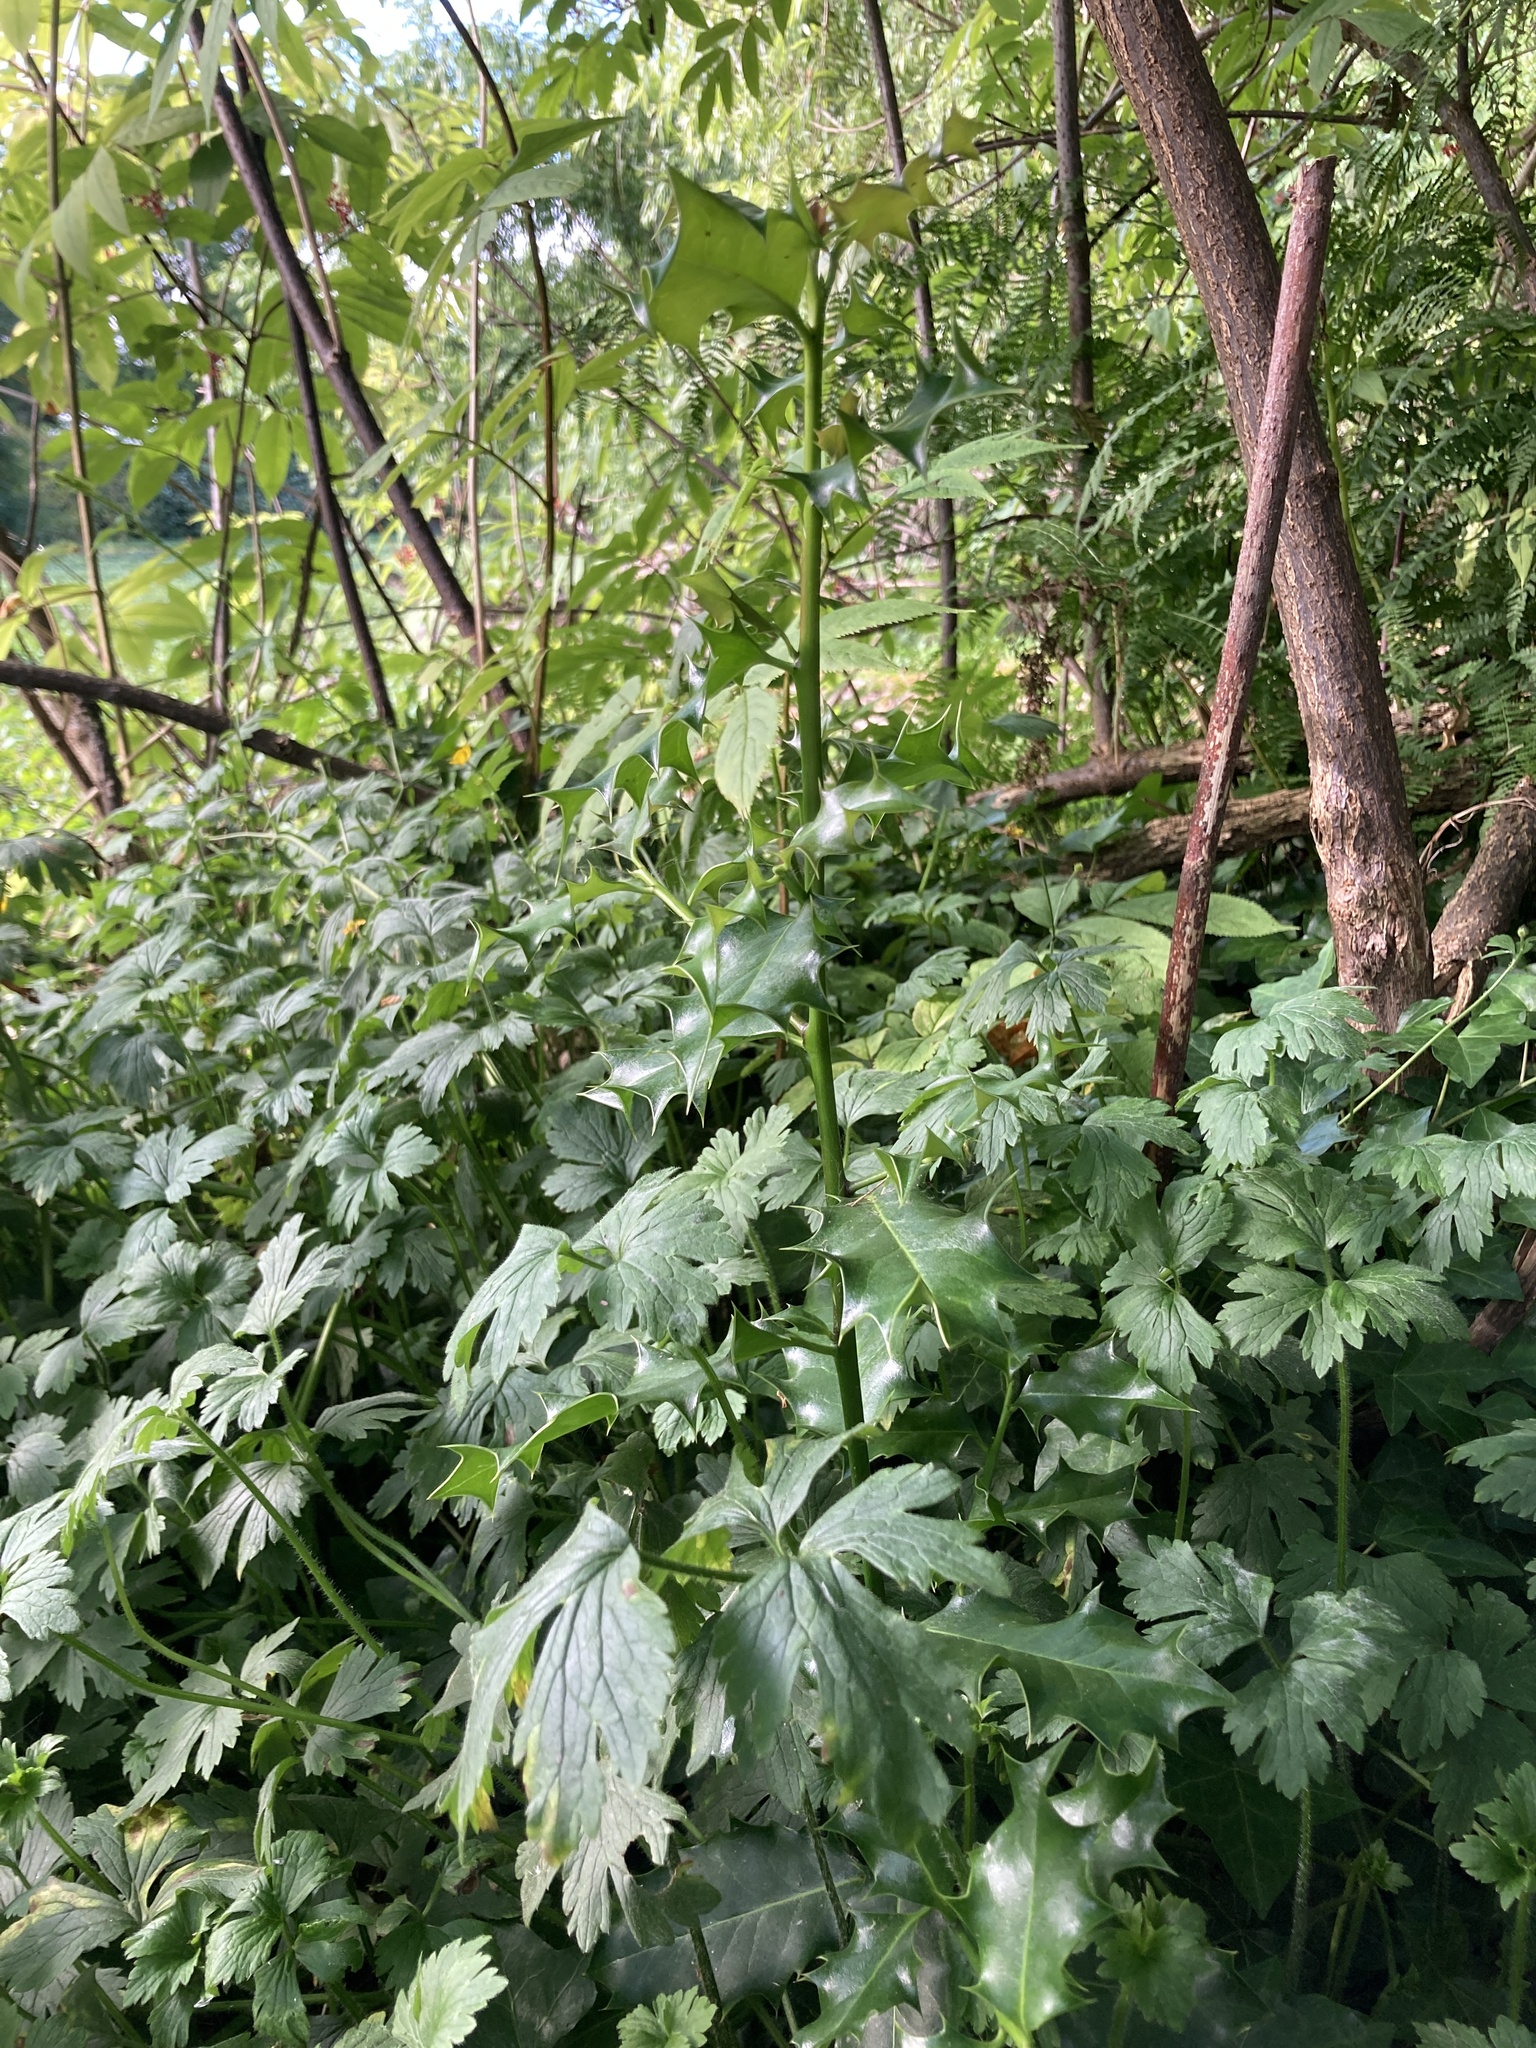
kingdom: Plantae
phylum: Tracheophyta
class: Magnoliopsida
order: Aquifoliales
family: Aquifoliaceae
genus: Ilex
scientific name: Ilex aquifolium
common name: English holly
